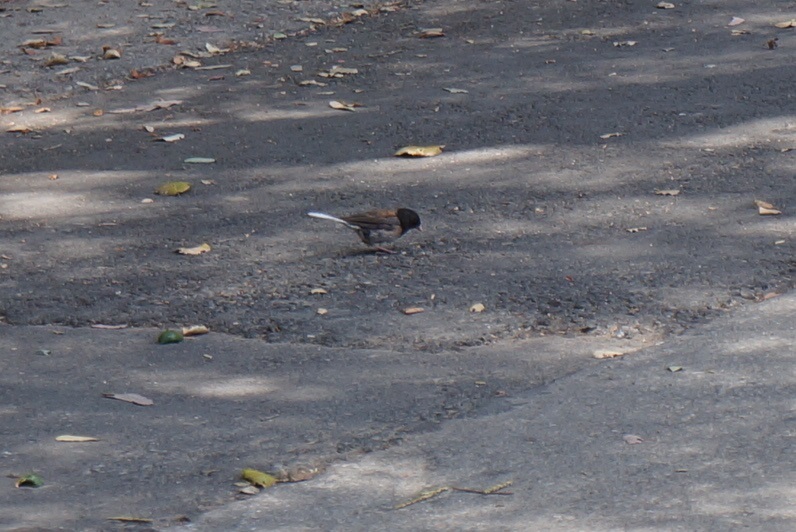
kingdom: Animalia
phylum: Chordata
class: Aves
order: Passeriformes
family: Passerellidae
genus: Junco
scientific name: Junco hyemalis
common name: Dark-eyed junco
